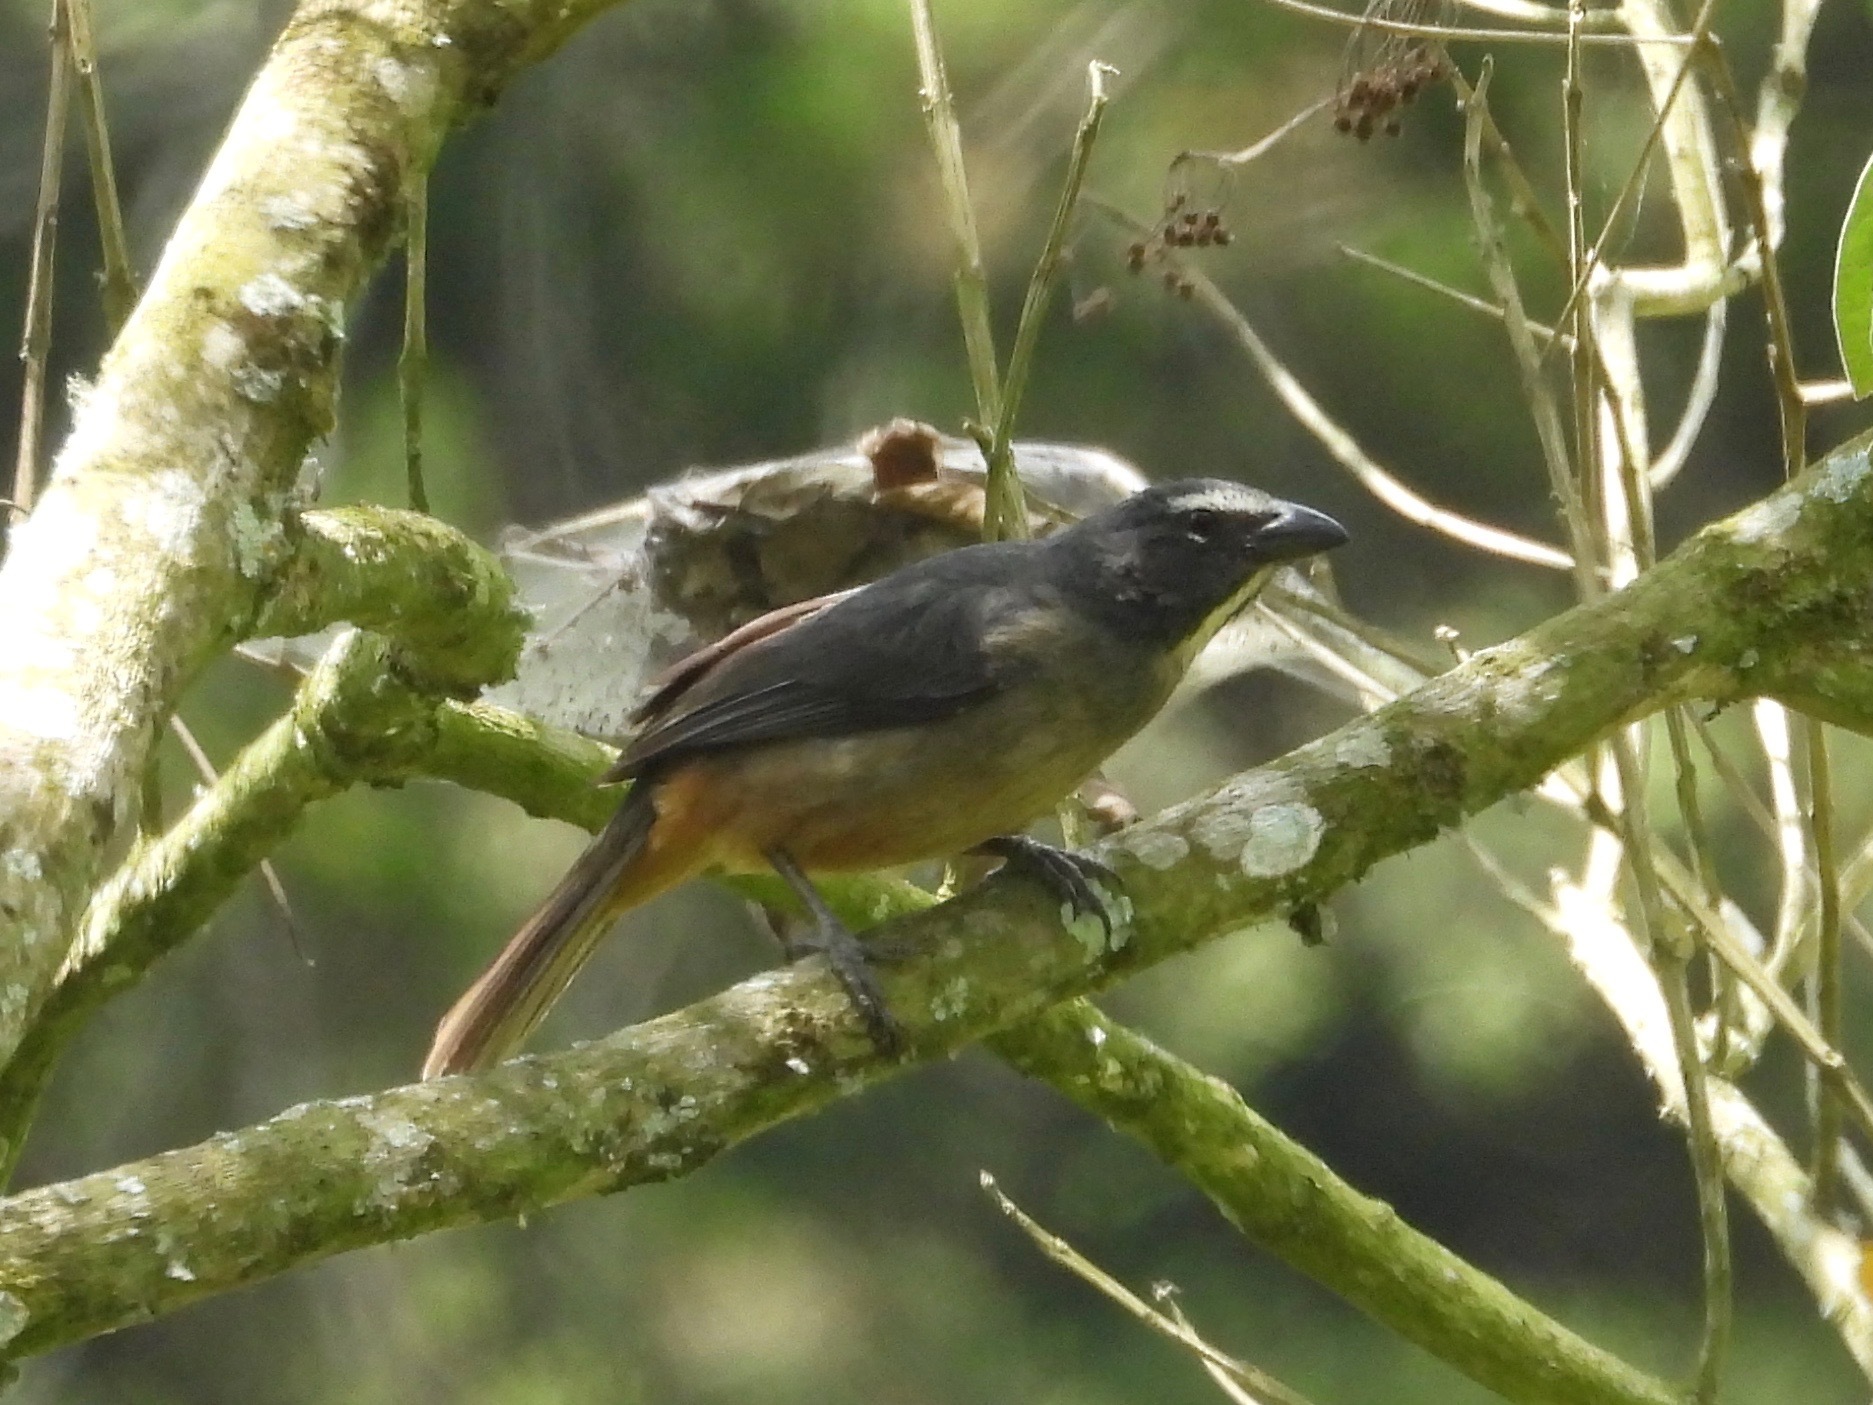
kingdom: Animalia
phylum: Chordata
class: Aves
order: Passeriformes
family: Thraupidae
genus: Saltator
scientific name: Saltator grandis
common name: Cinnamon-bellied saltator
